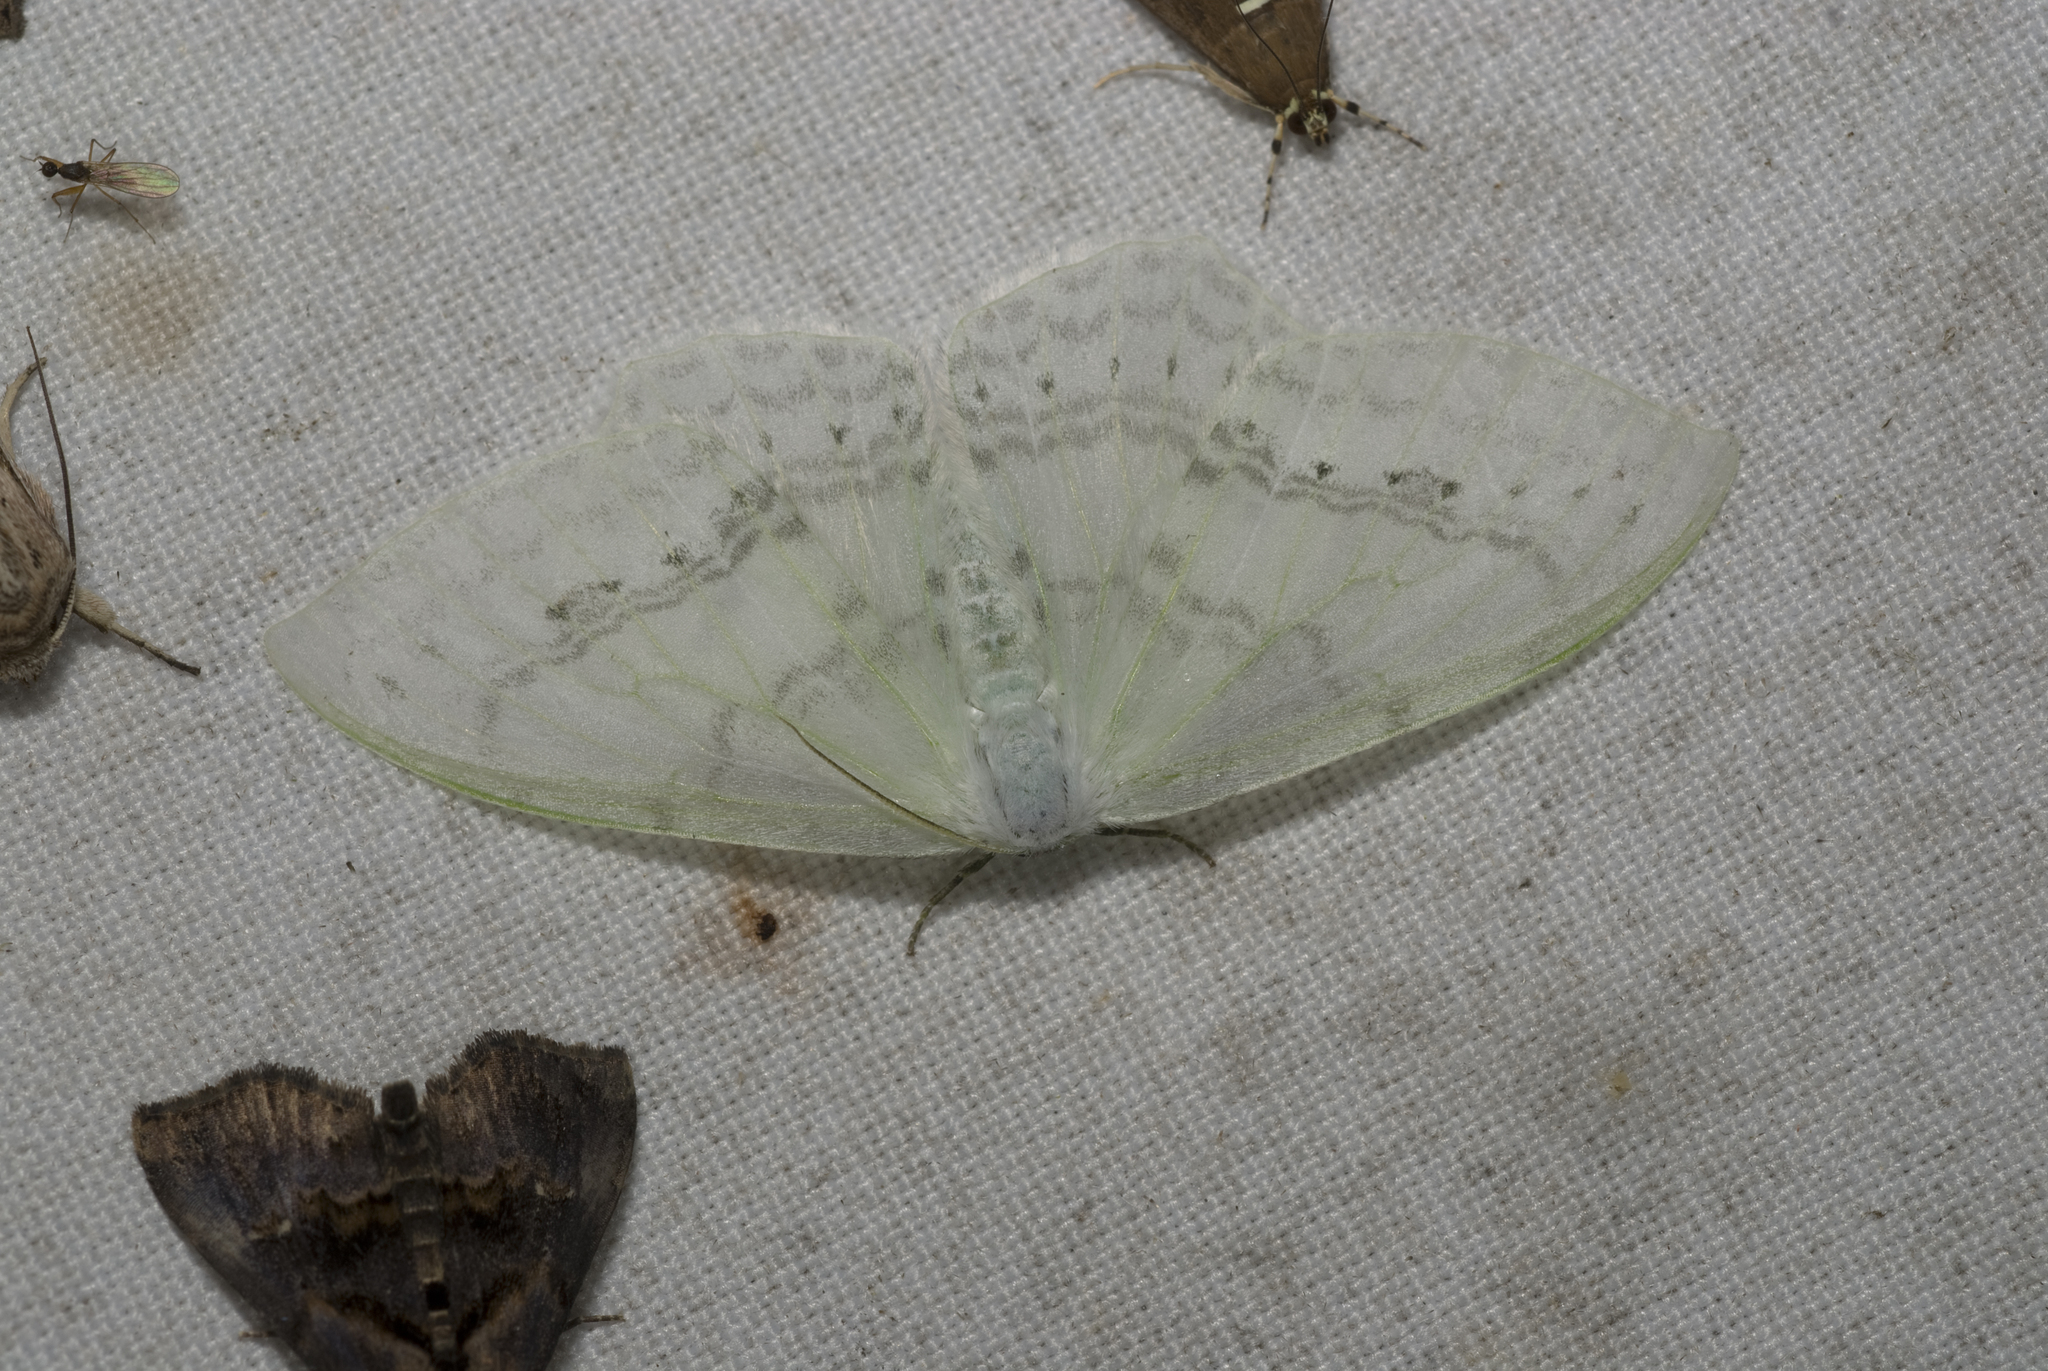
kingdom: Animalia
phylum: Arthropoda
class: Insecta
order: Lepidoptera
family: Drepanidae
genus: Auzata
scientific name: Auzata simpliciata
